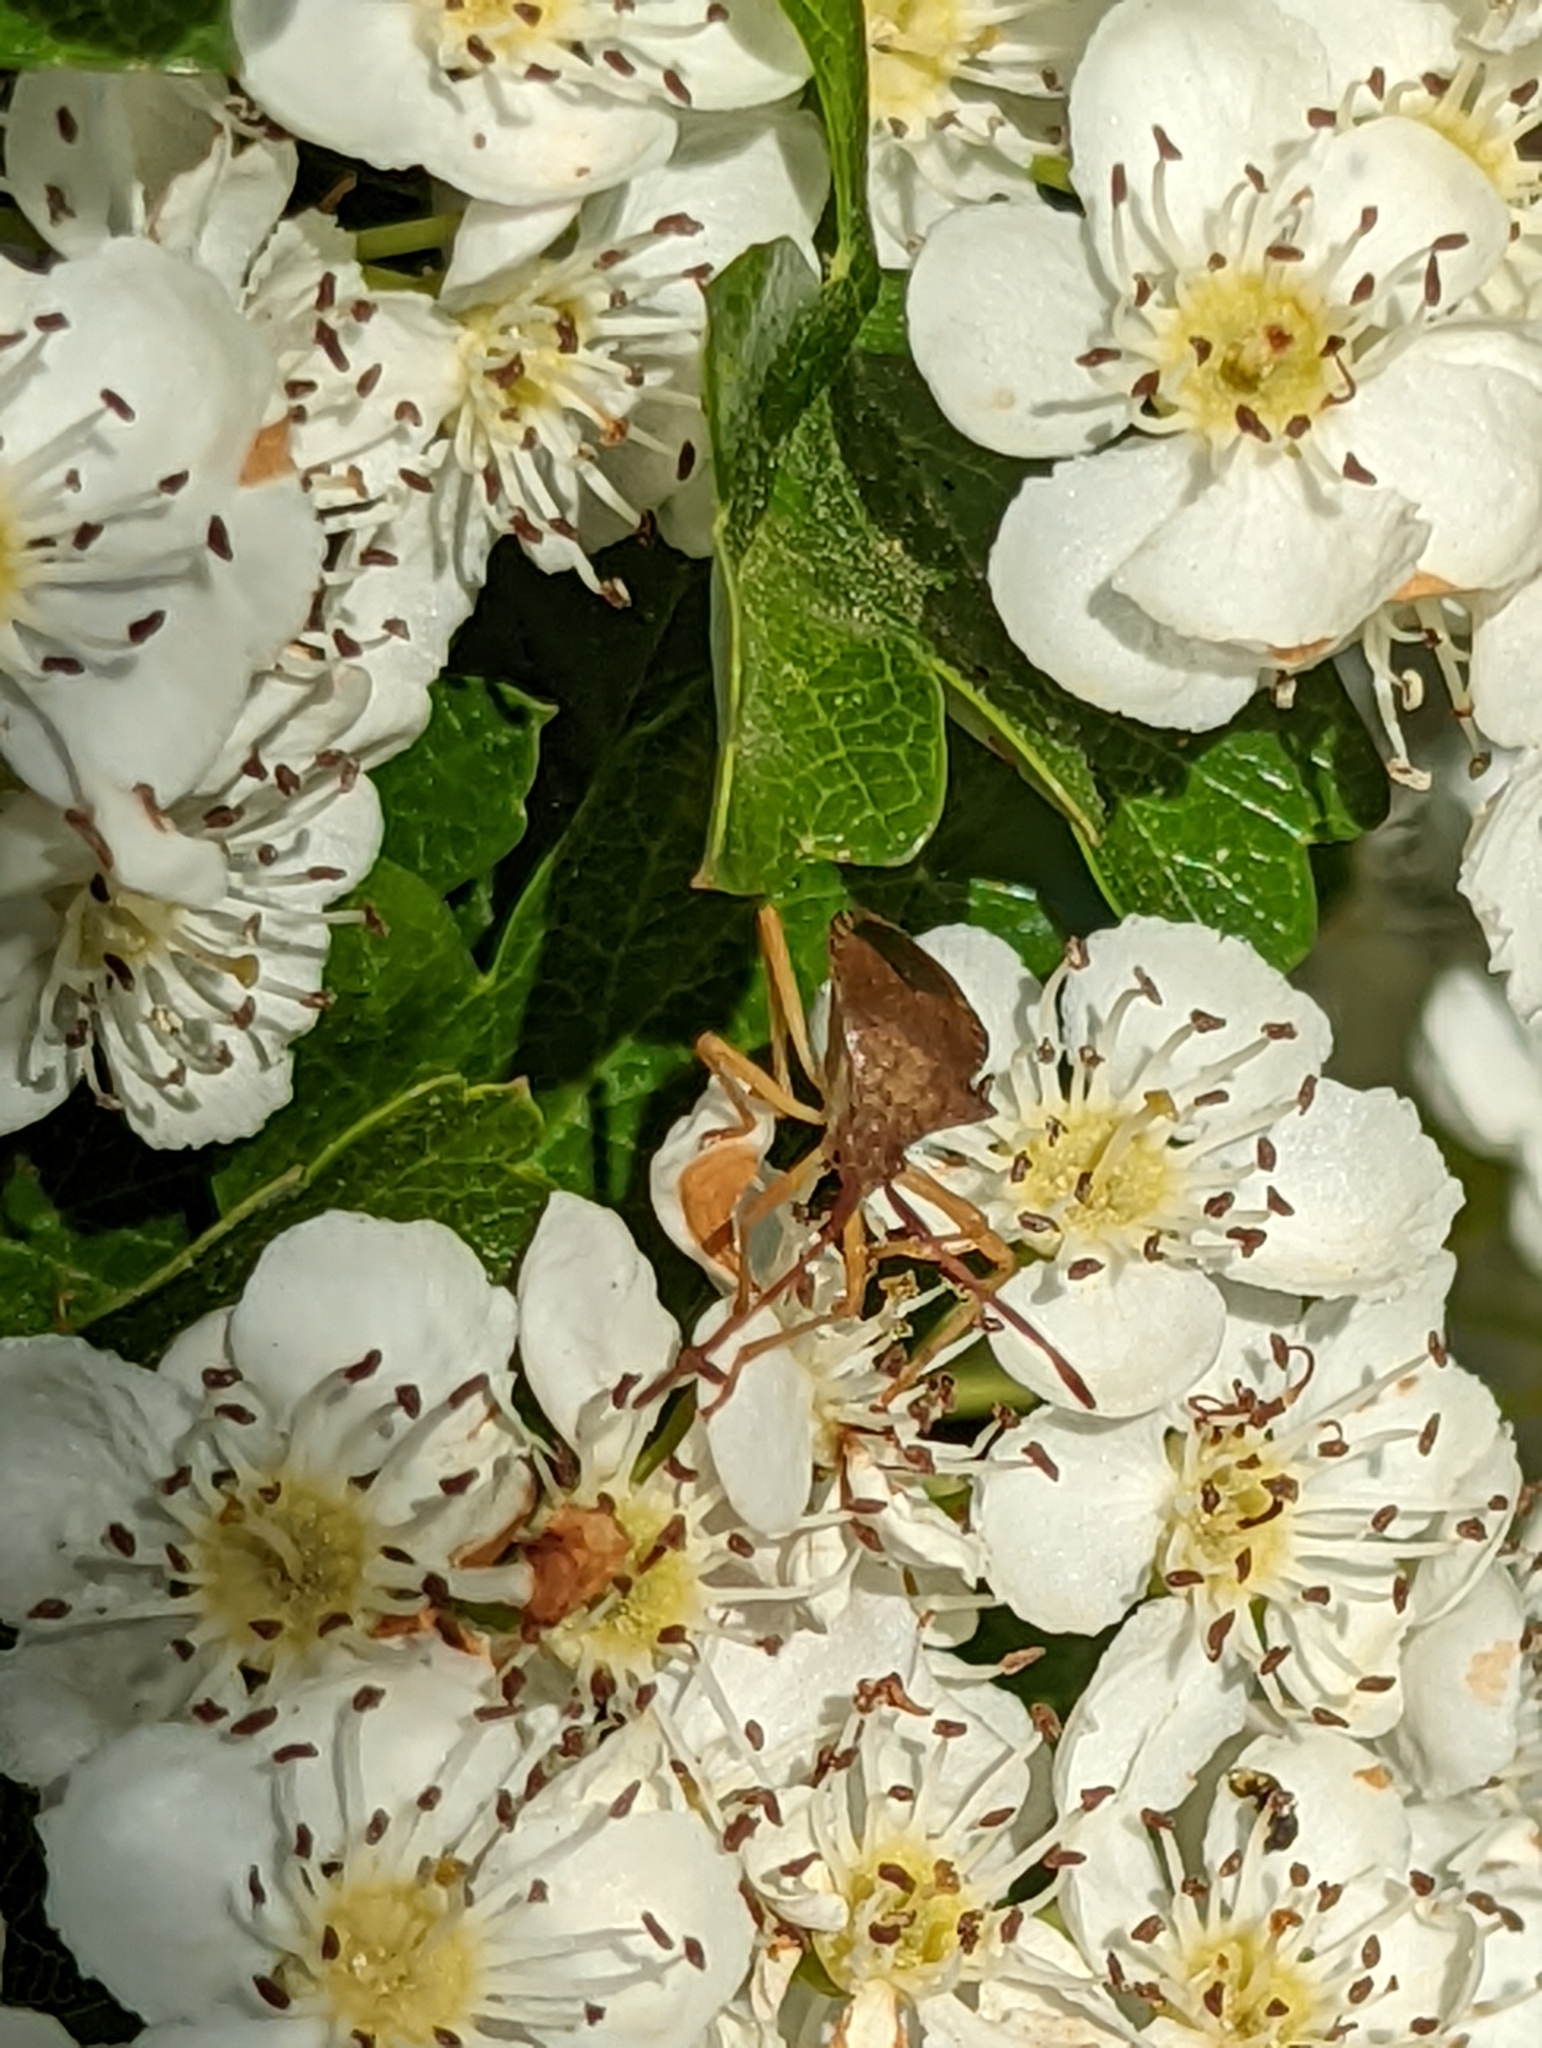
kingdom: Animalia
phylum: Arthropoda
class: Insecta
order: Hemiptera
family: Coreidae
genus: Gonocerus
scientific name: Gonocerus acuteangulatus
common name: Box bug
